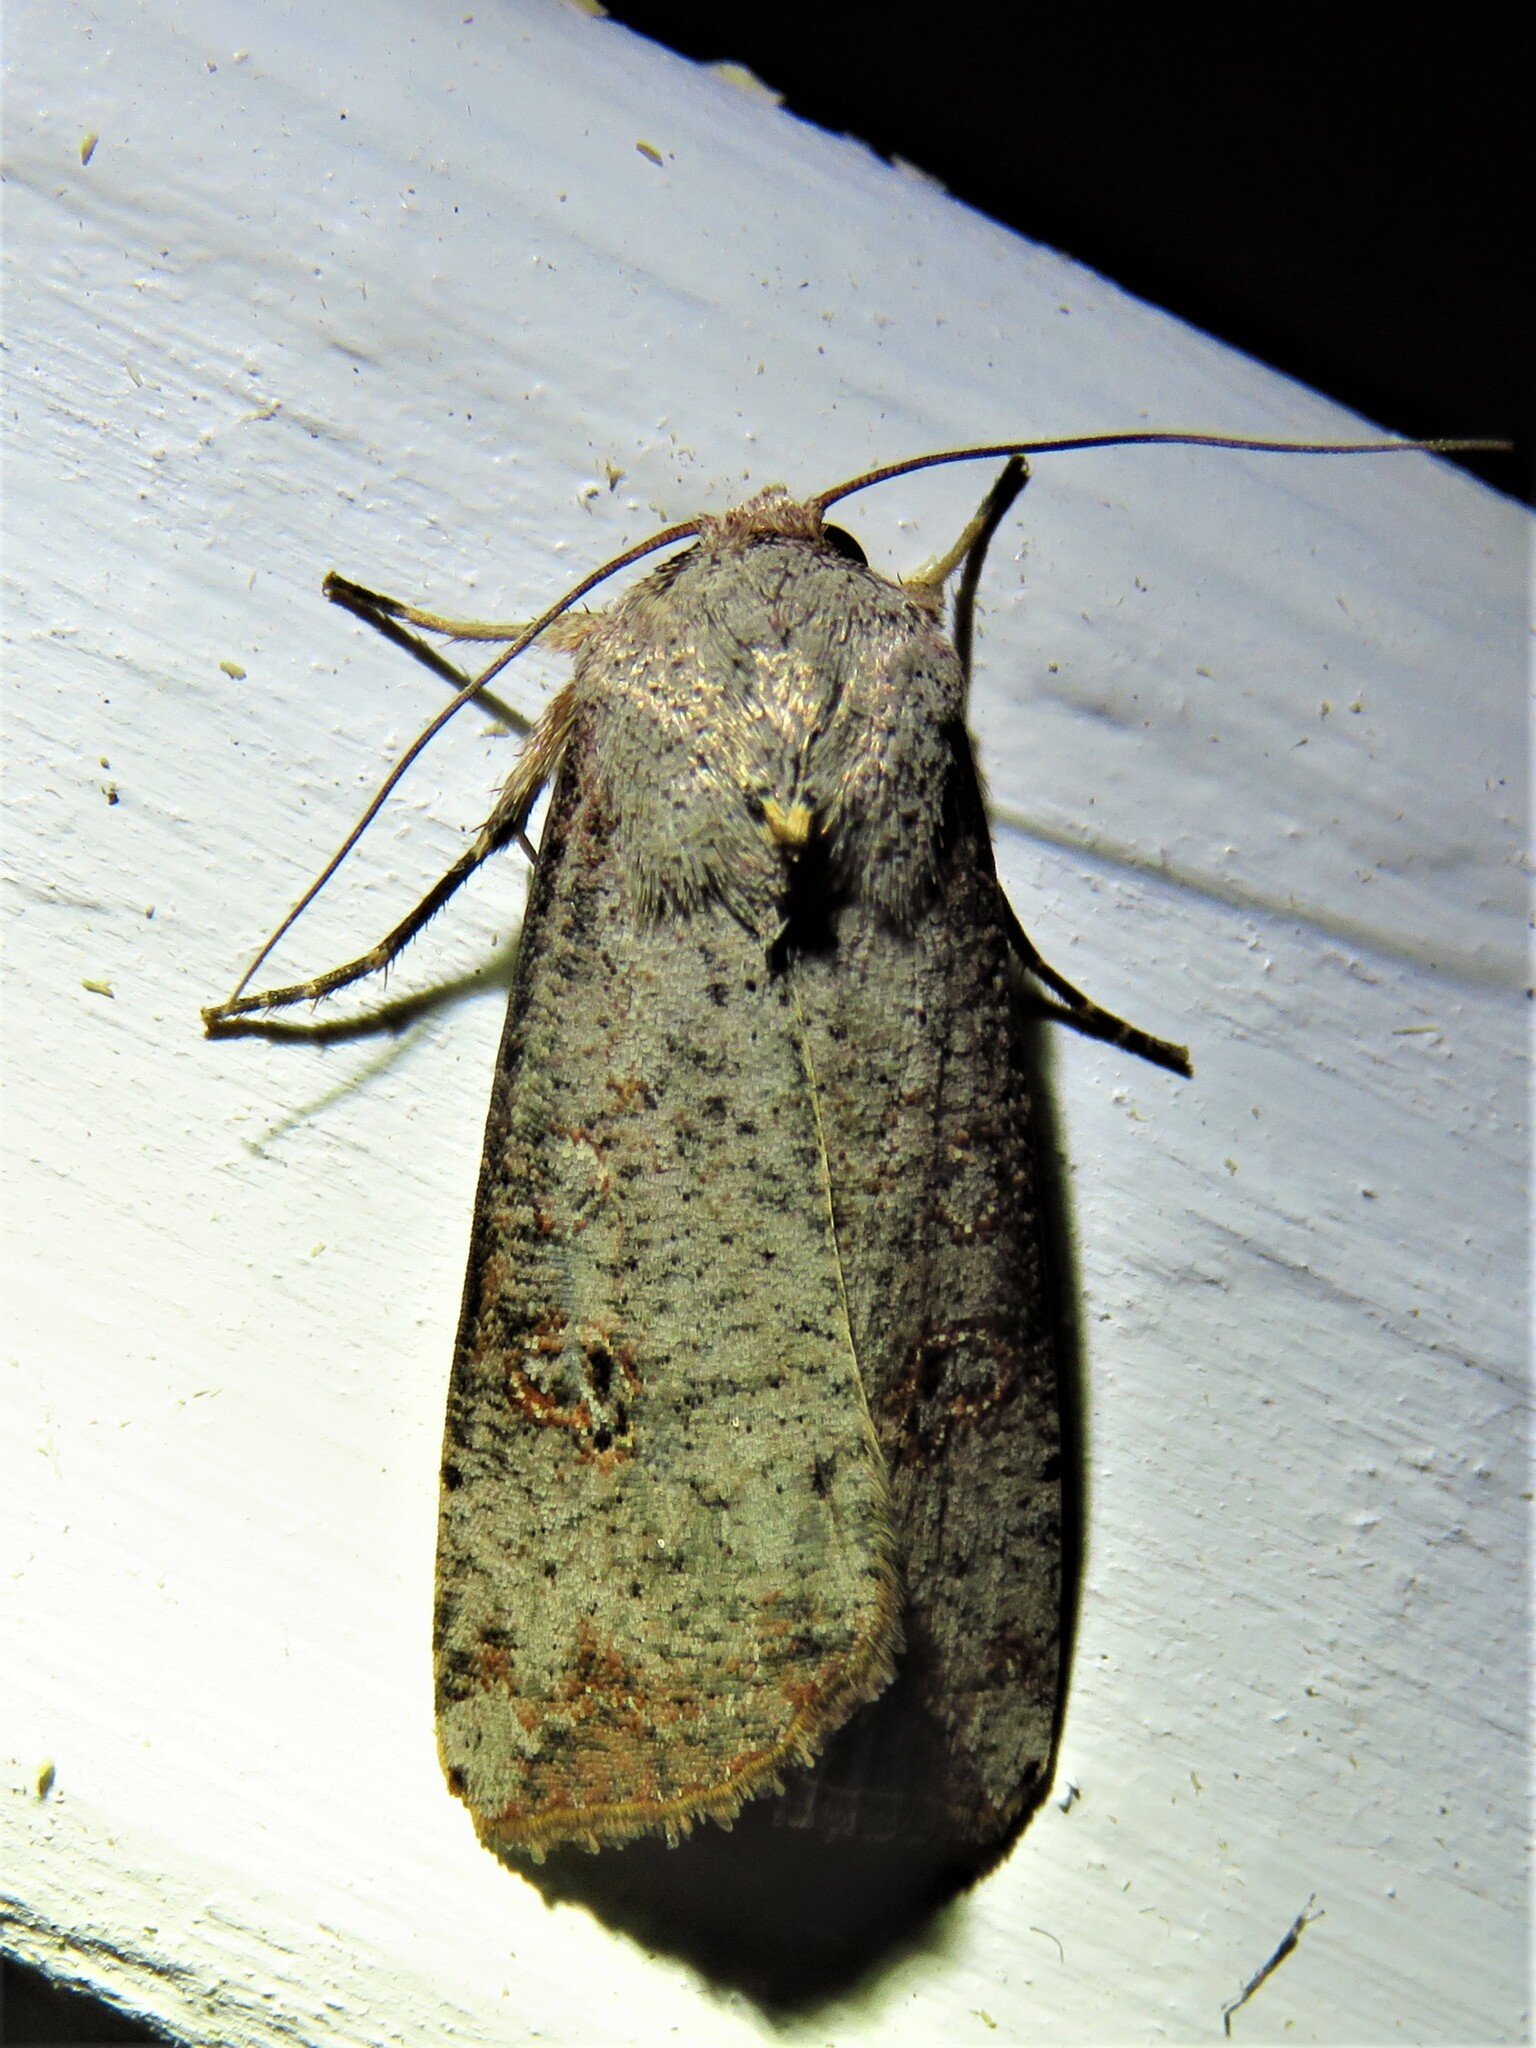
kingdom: Animalia
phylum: Arthropoda
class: Insecta
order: Lepidoptera
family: Noctuidae
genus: Anicla
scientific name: Anicla infecta
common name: Green cutworm
